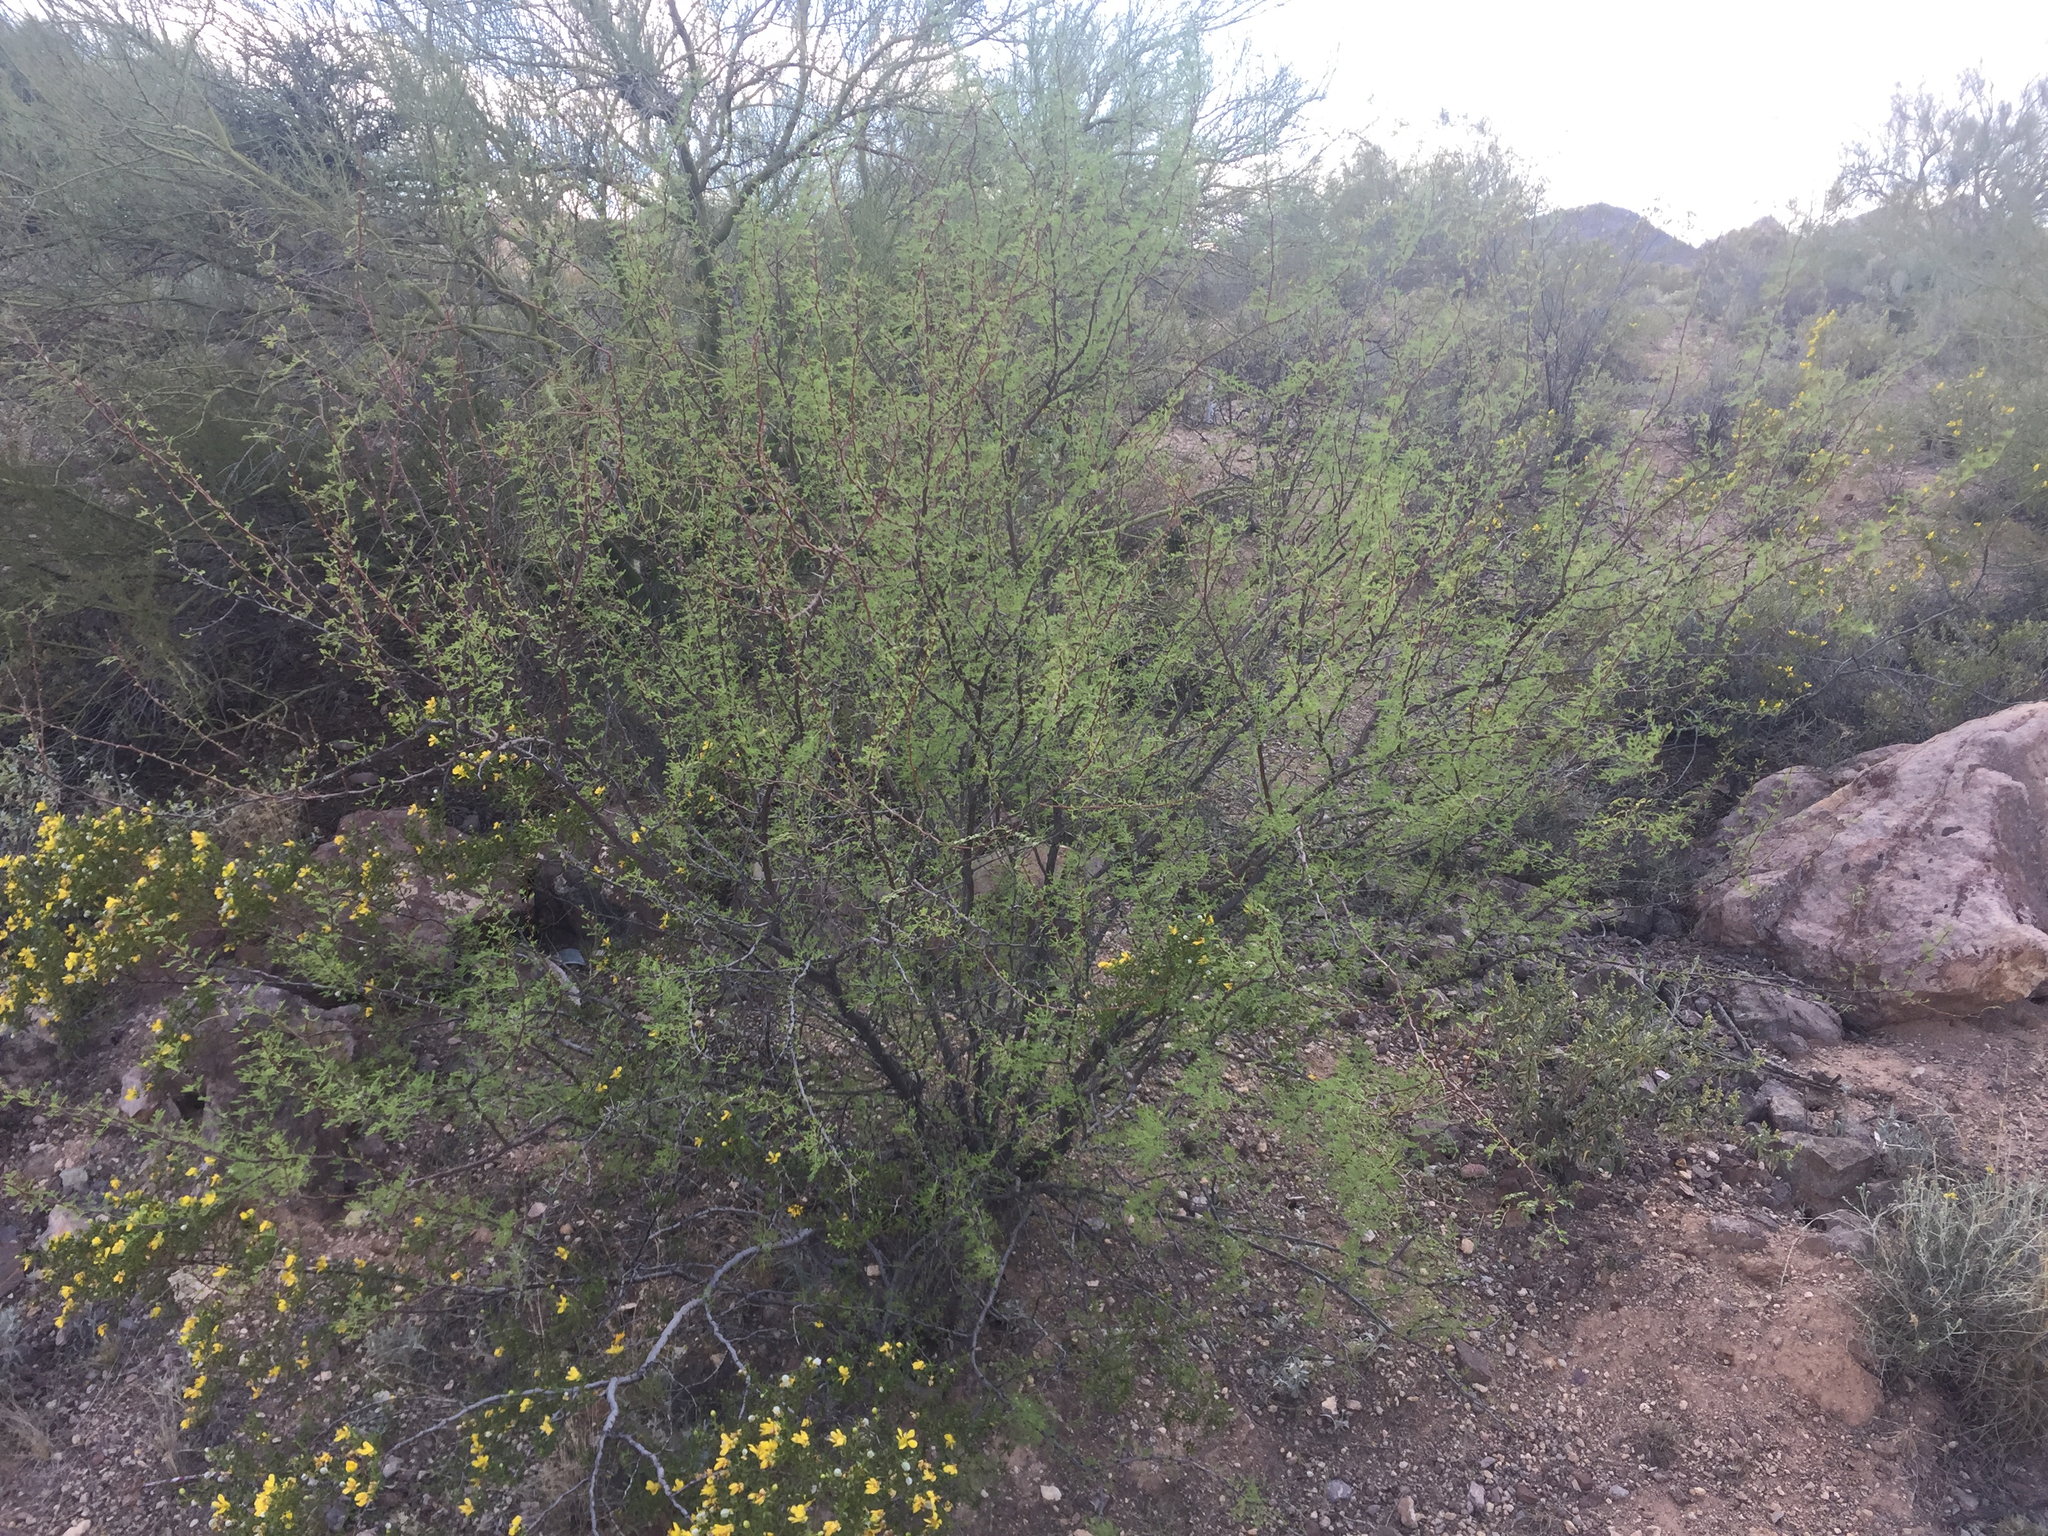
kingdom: Plantae
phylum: Tracheophyta
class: Magnoliopsida
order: Fabales
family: Fabaceae
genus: Vachellia
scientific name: Vachellia constricta
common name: Mescat acacia
